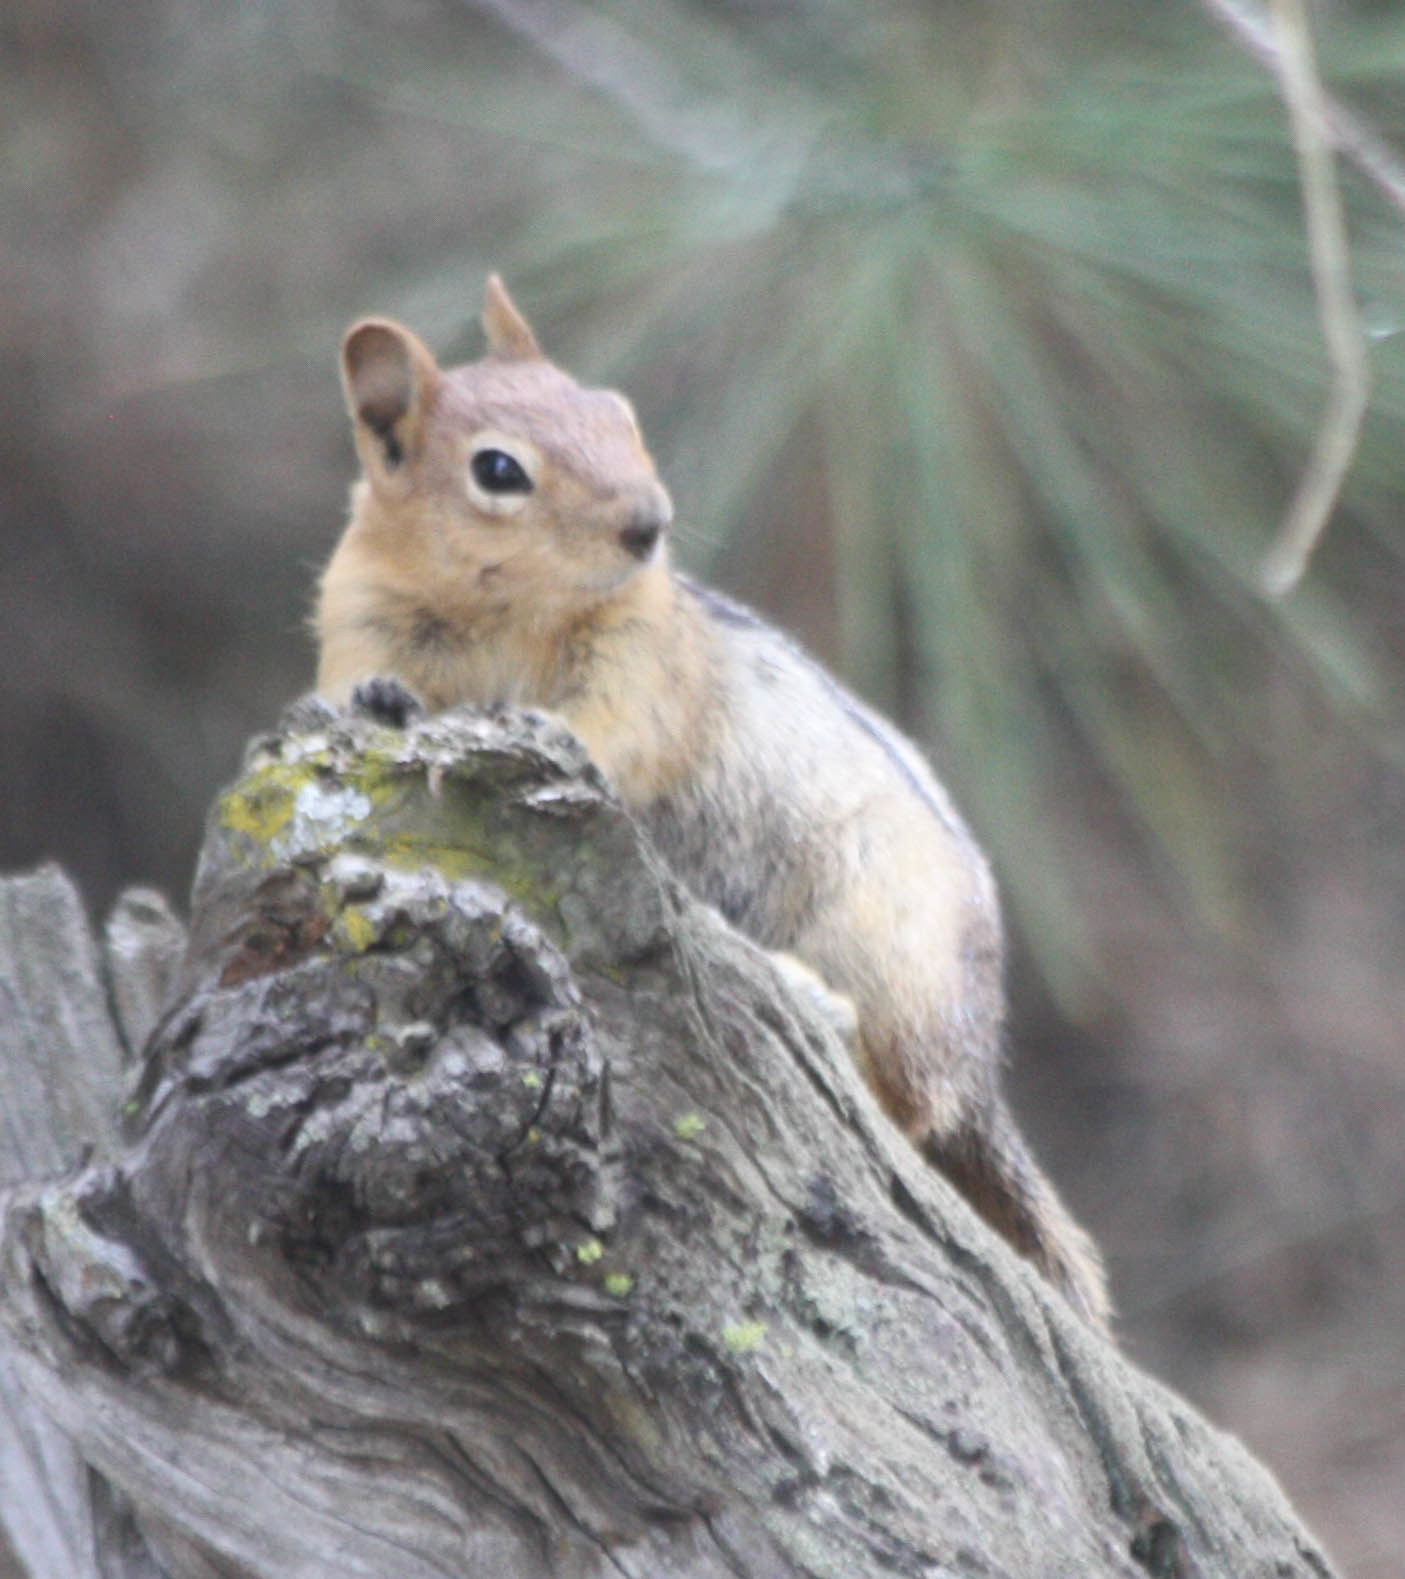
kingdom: Animalia
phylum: Chordata
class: Mammalia
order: Rodentia
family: Sciuridae
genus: Callospermophilus
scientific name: Callospermophilus lateralis
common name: Golden-mantled ground squirrel
